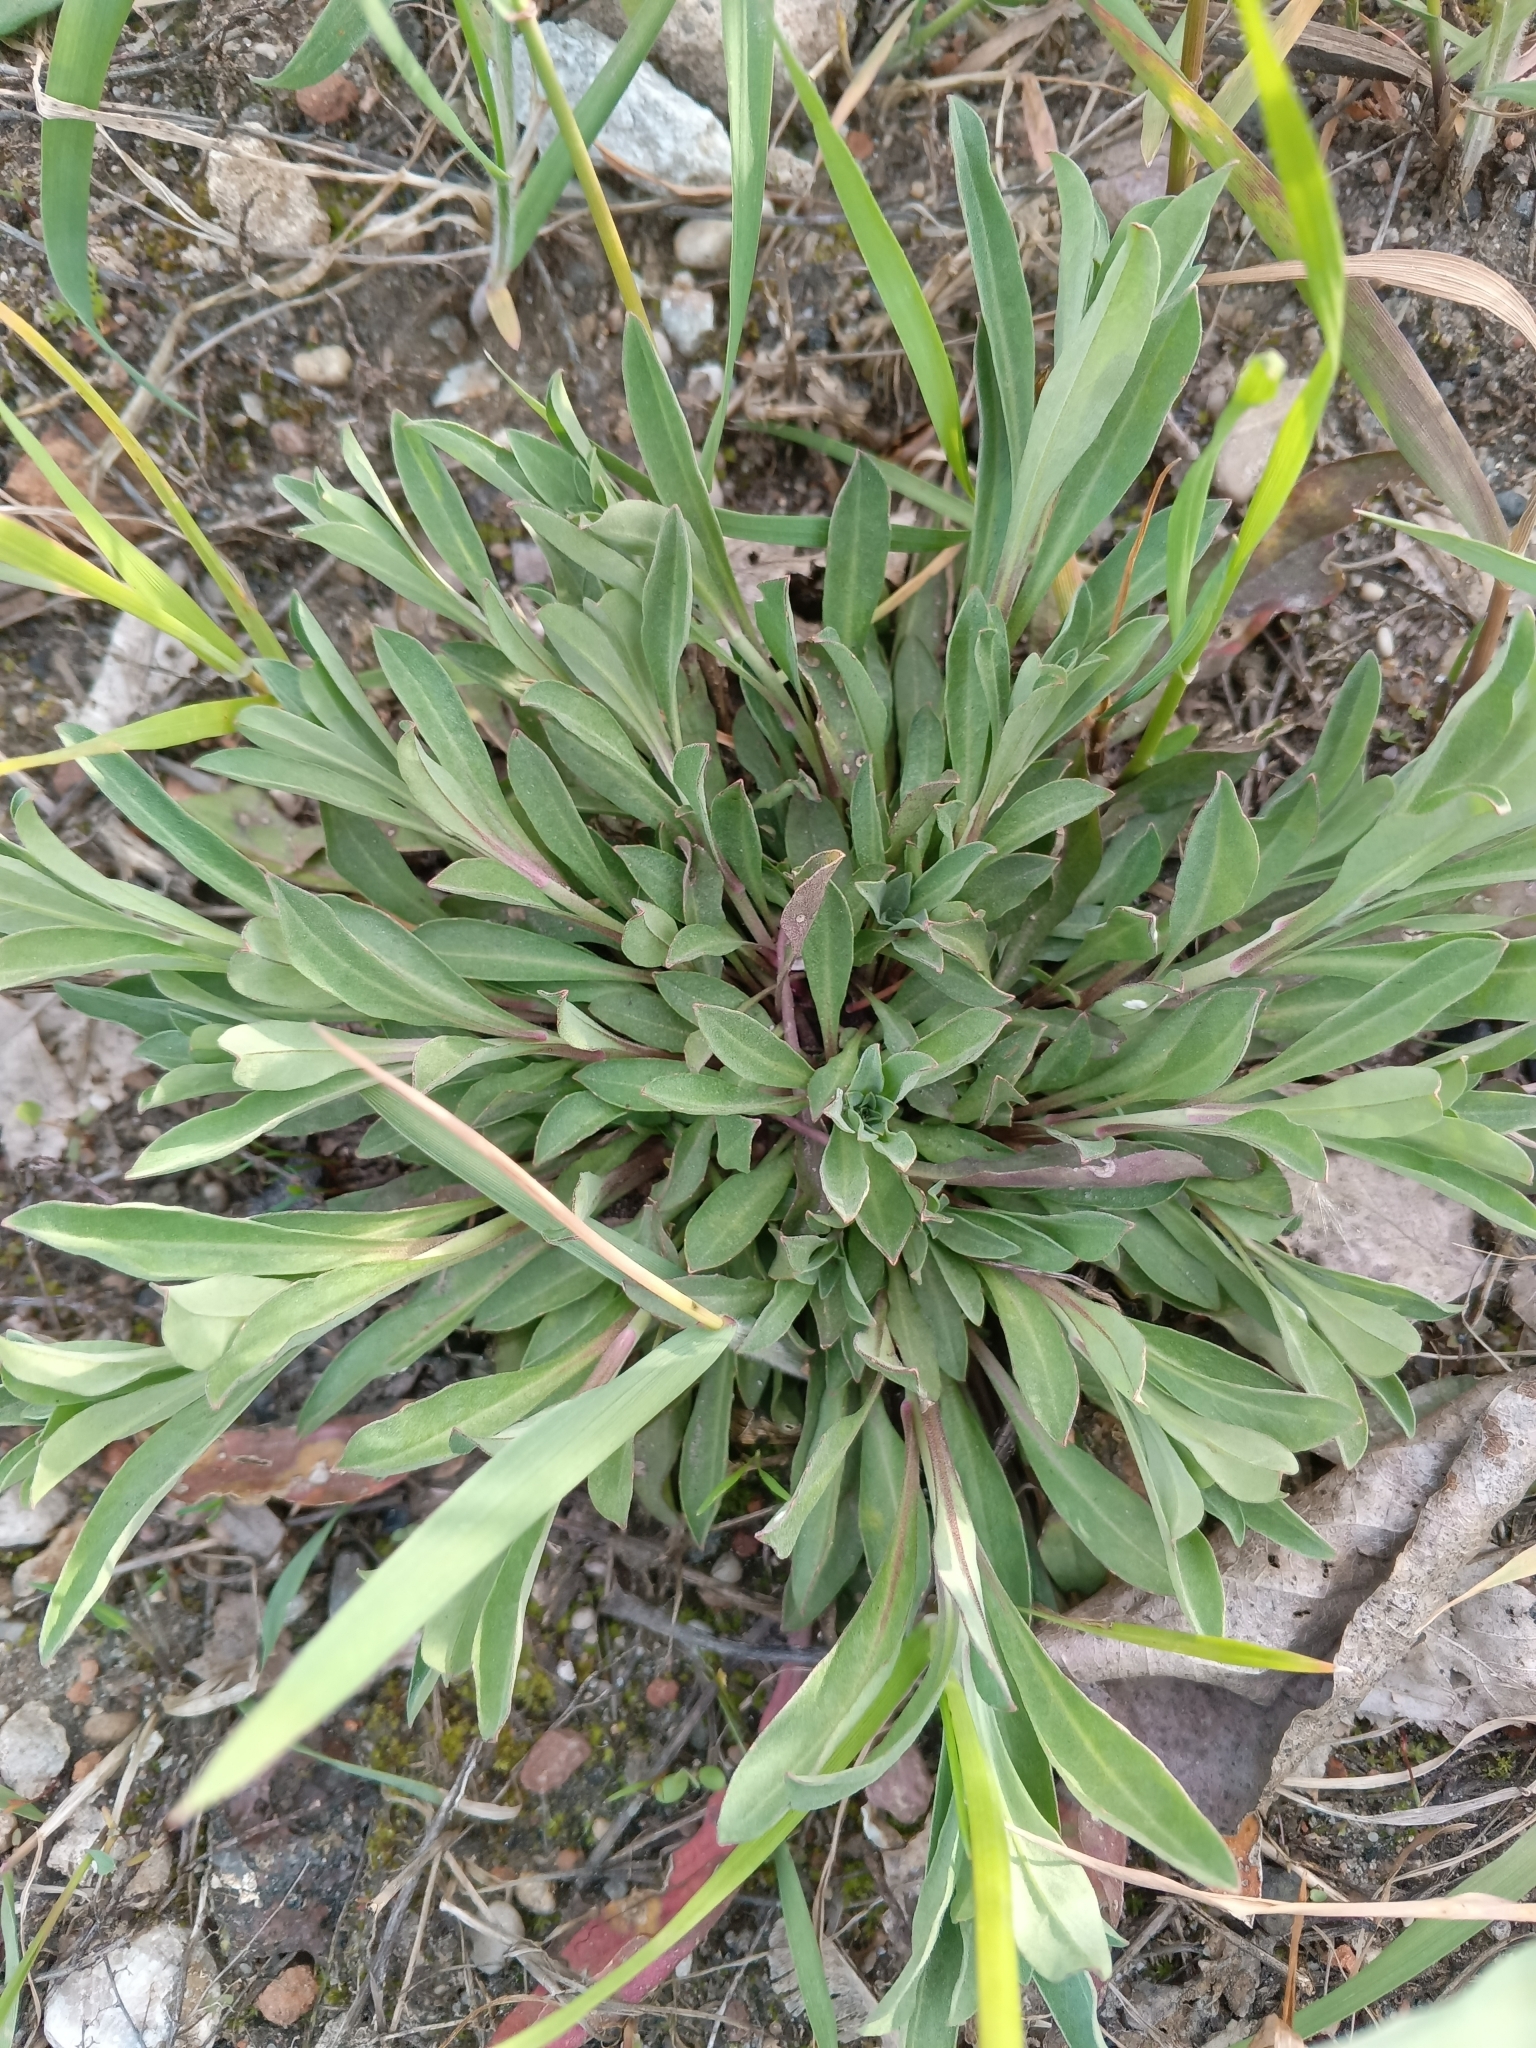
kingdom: Plantae
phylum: Tracheophyta
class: Magnoliopsida
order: Brassicales
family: Brassicaceae
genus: Berteroa
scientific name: Berteroa incana
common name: Hoary alison
